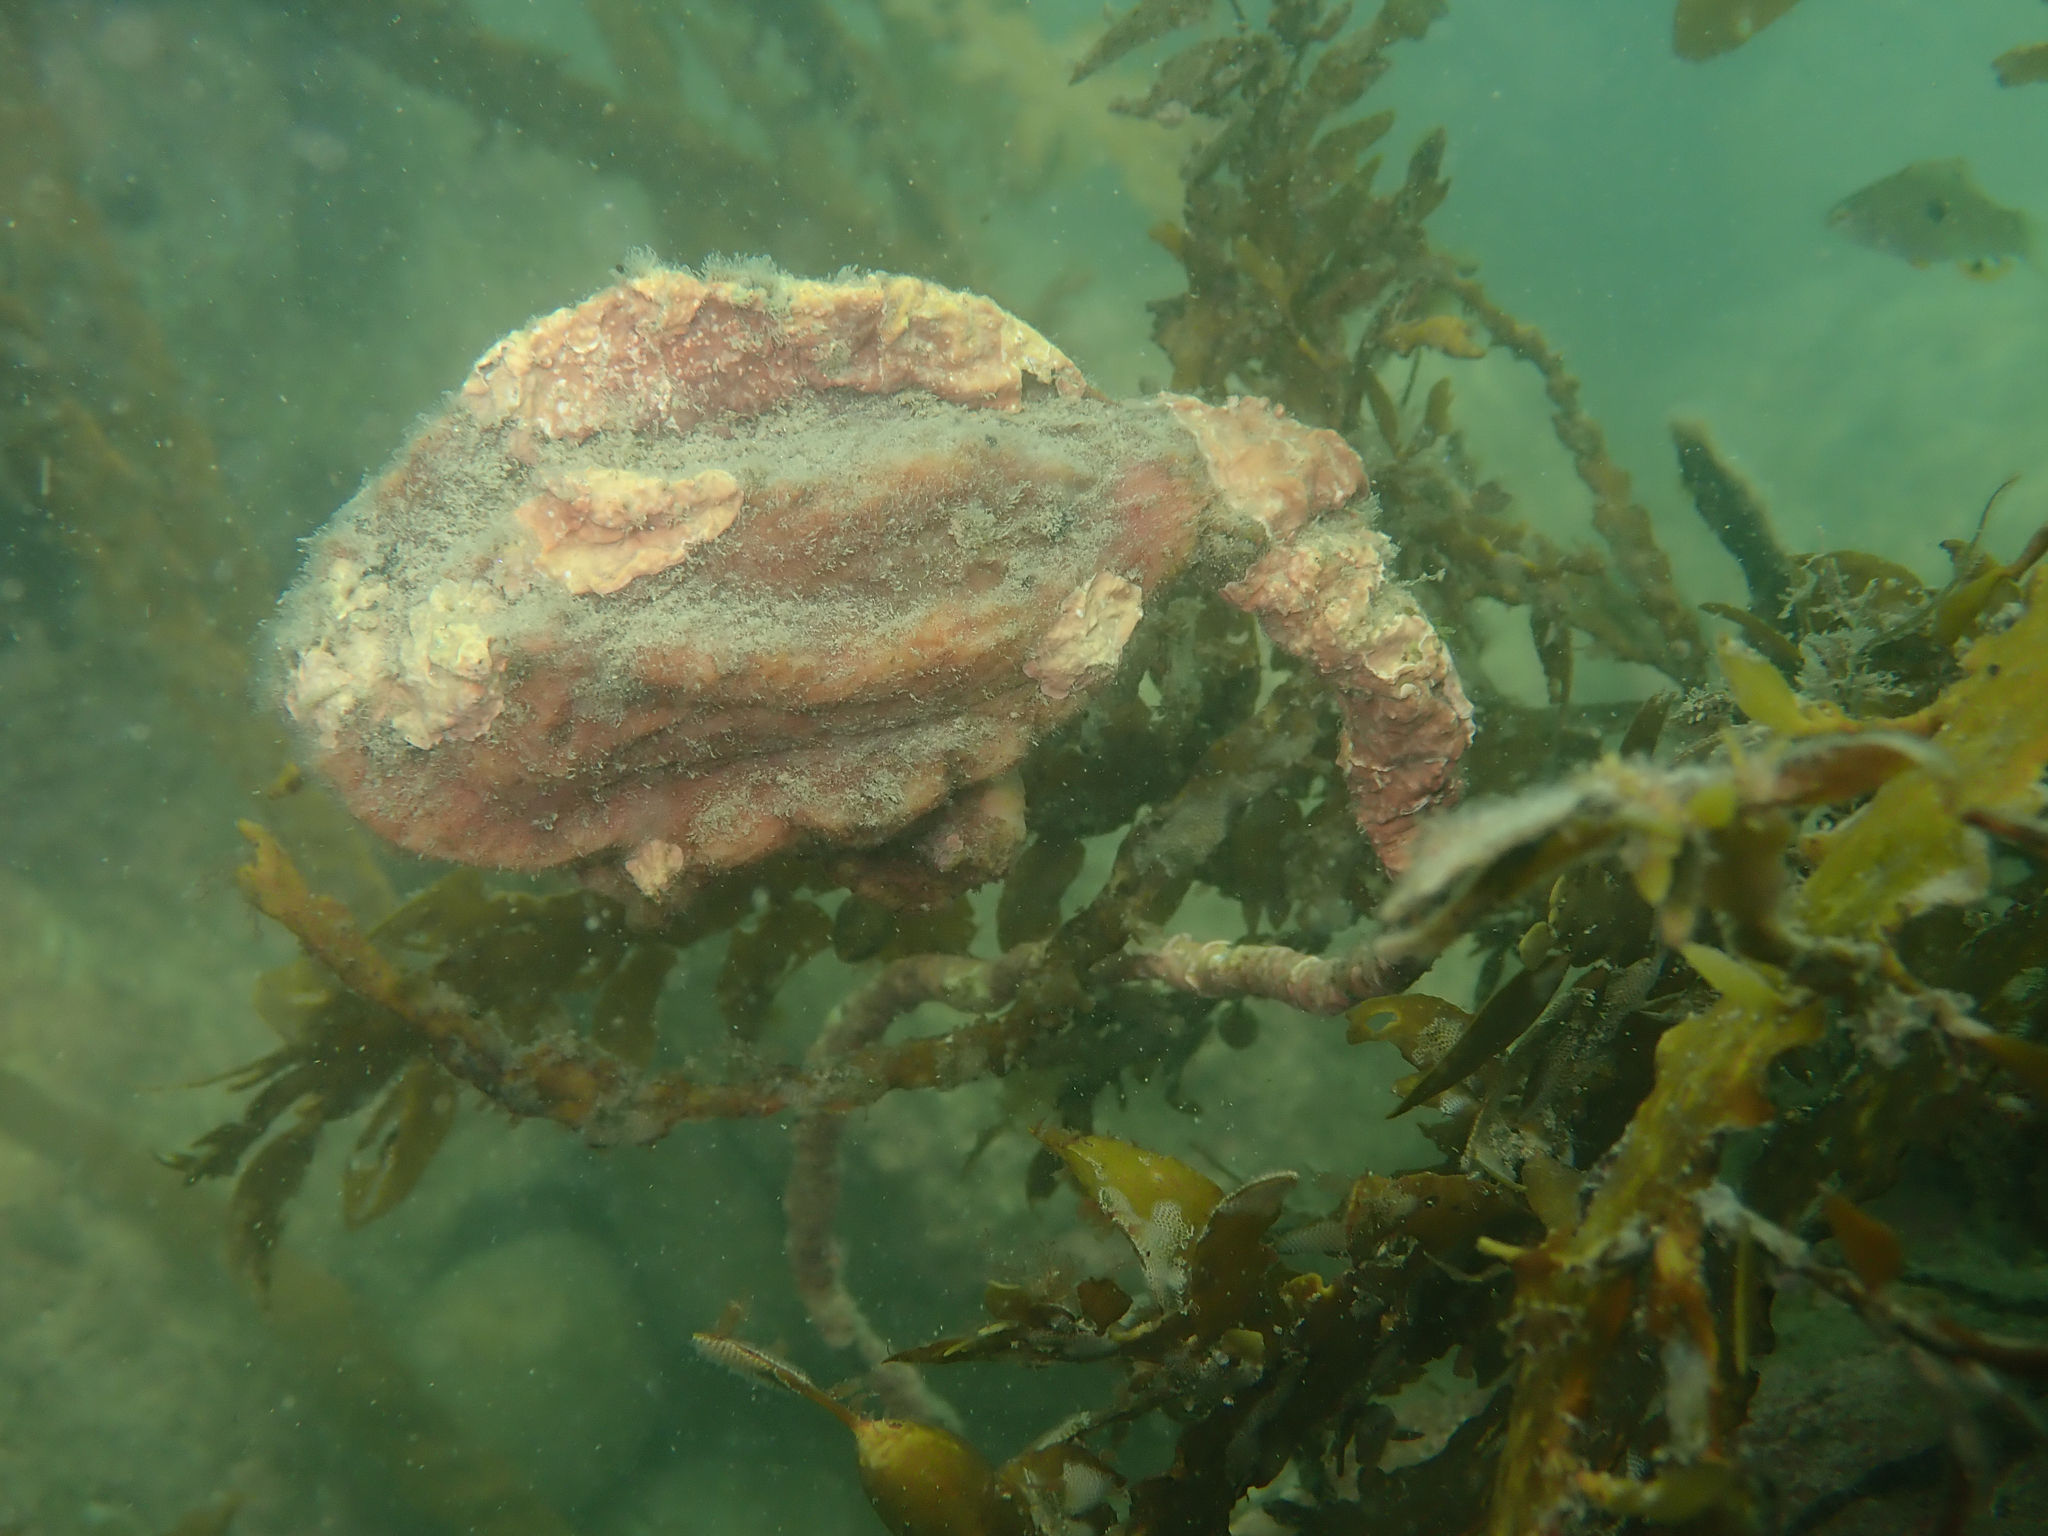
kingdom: Animalia
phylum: Chordata
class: Ascidiacea
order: Stolidobranchia
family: Pyuridae
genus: Pyura
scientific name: Pyura pachydermatina
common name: Sea tulip
